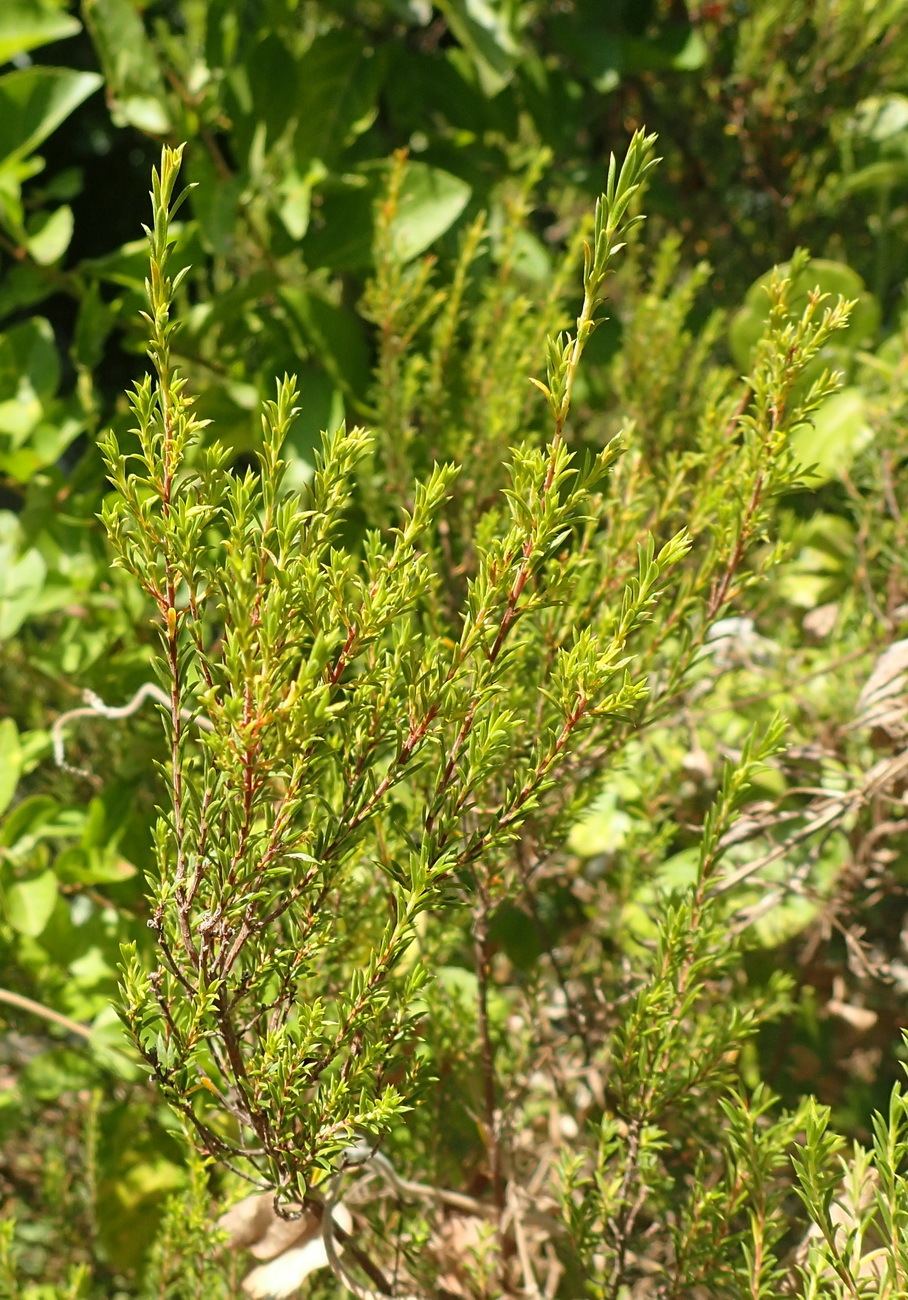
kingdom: Plantae
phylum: Tracheophyta
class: Magnoliopsida
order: Sapindales
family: Rutaceae
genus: Coleonema
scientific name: Coleonema album
